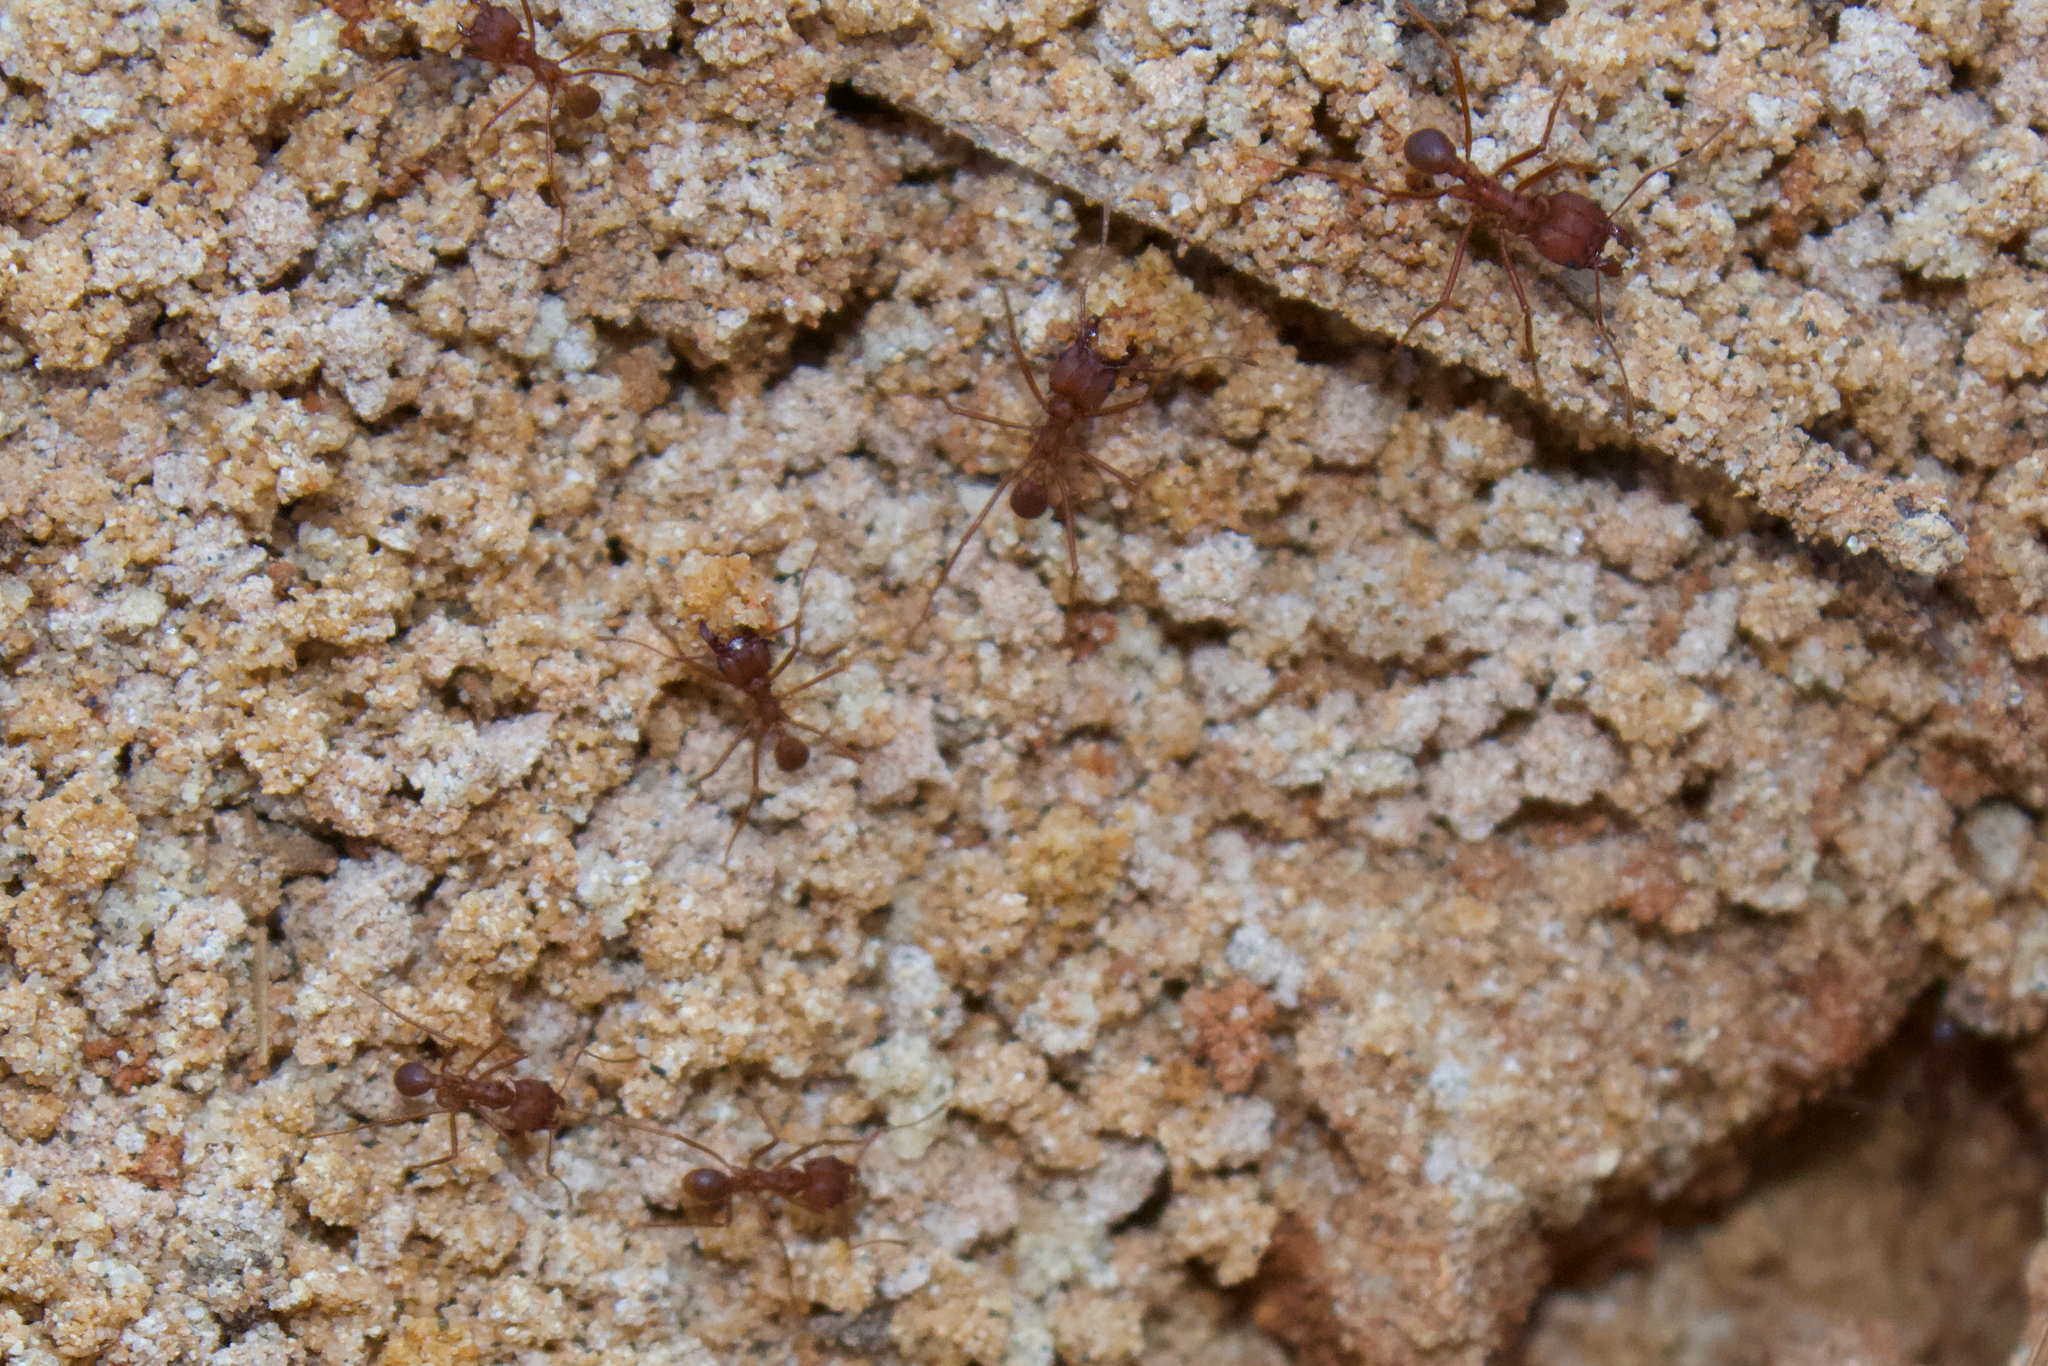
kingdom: Animalia
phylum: Arthropoda
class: Insecta
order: Hymenoptera
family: Formicidae
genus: Atta
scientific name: Atta texana
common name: Texas leafcutting ant
